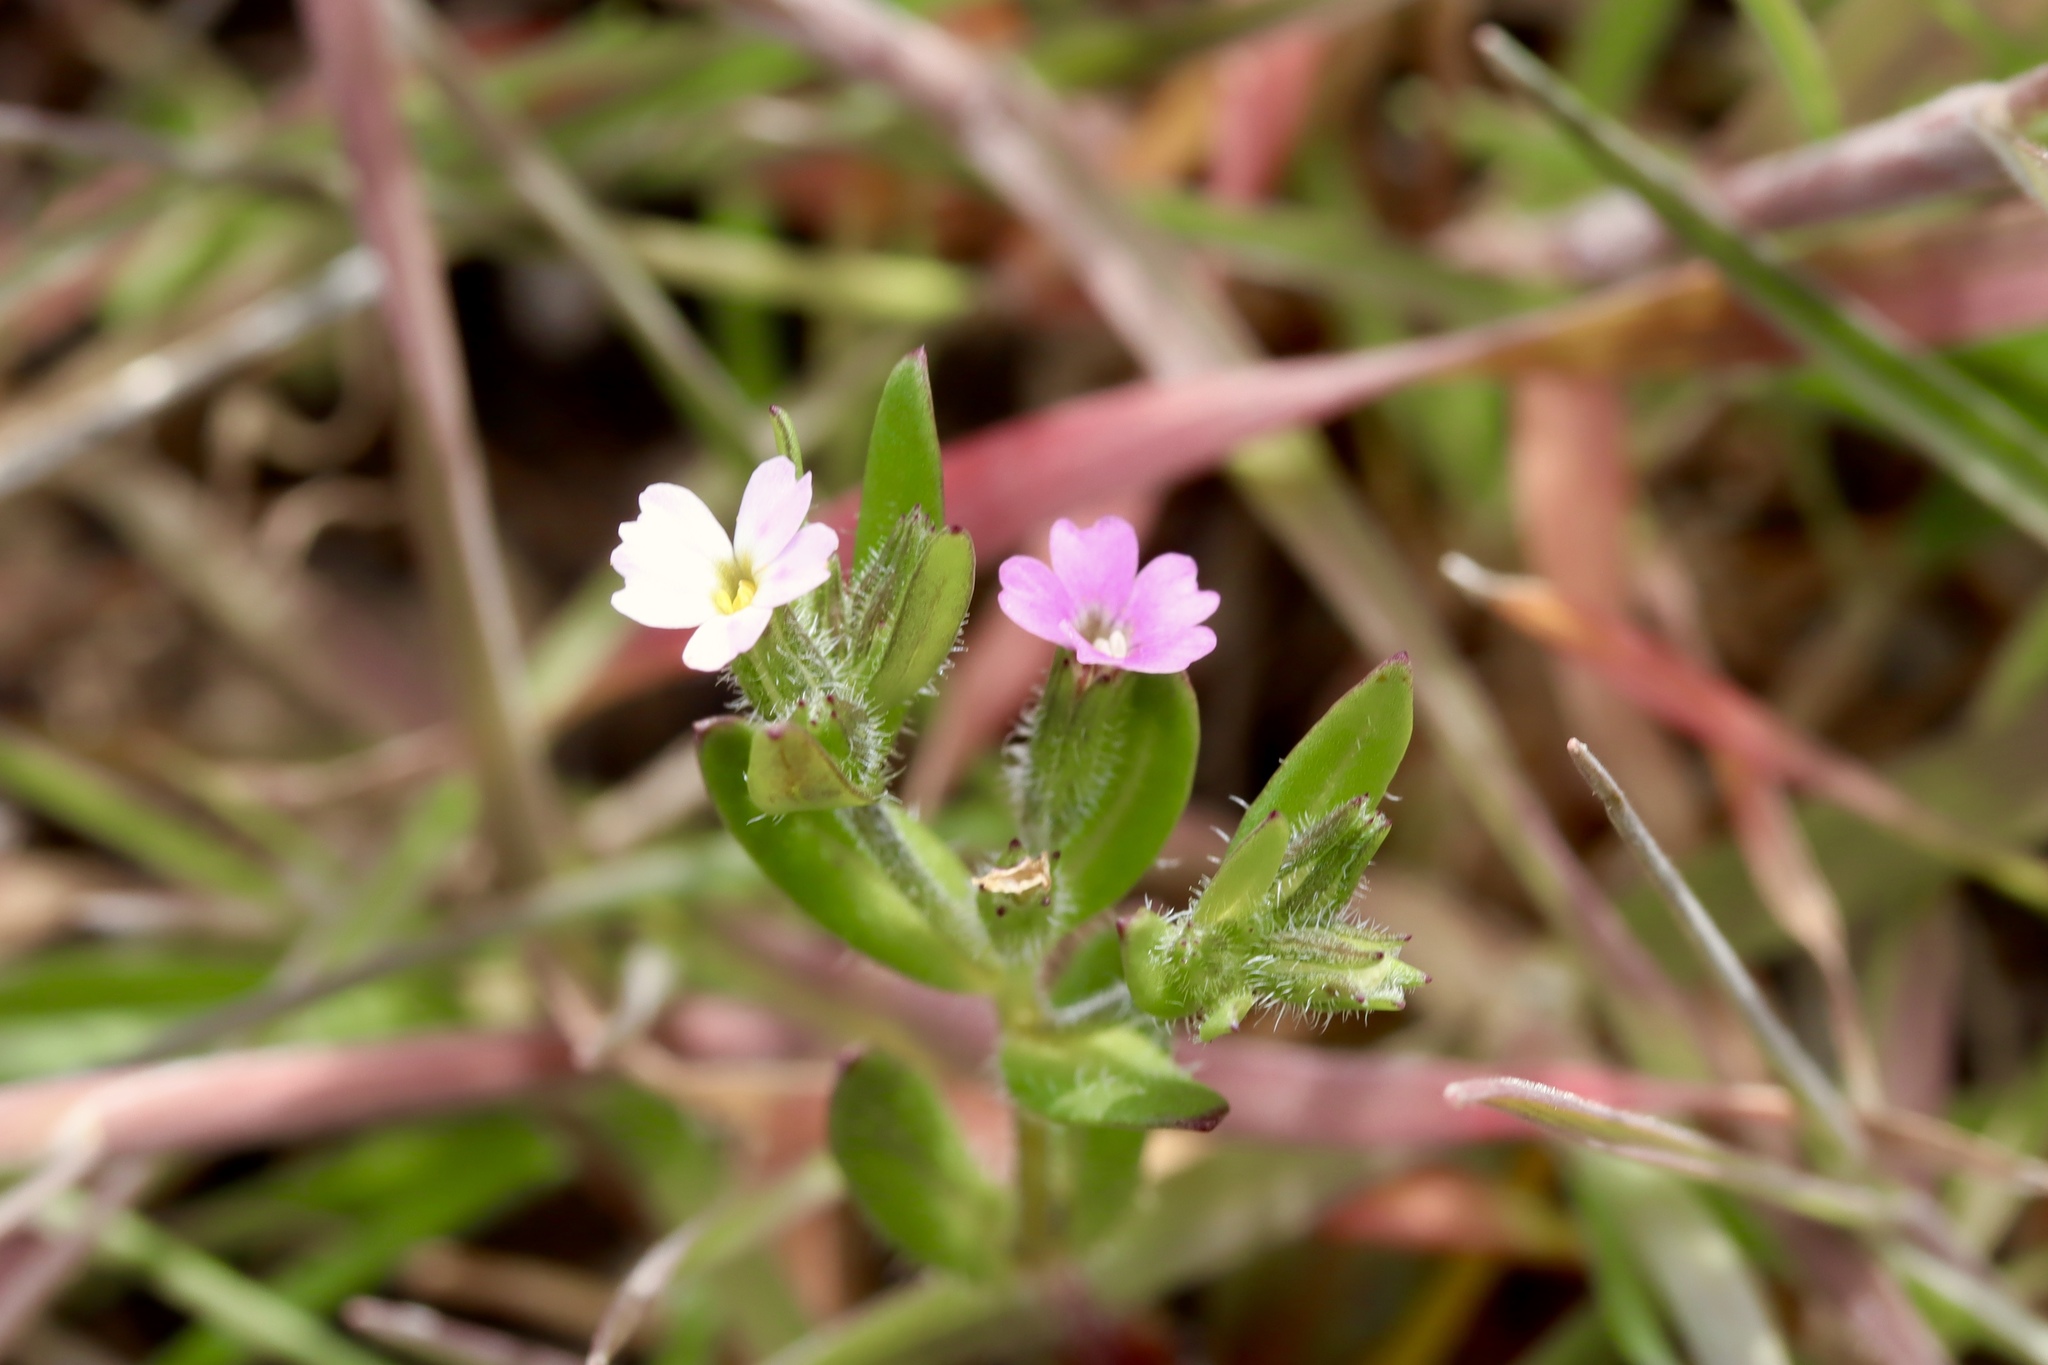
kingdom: Plantae
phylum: Tracheophyta
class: Magnoliopsida
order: Ericales
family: Polemoniaceae
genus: Phlox
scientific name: Phlox gracilis
